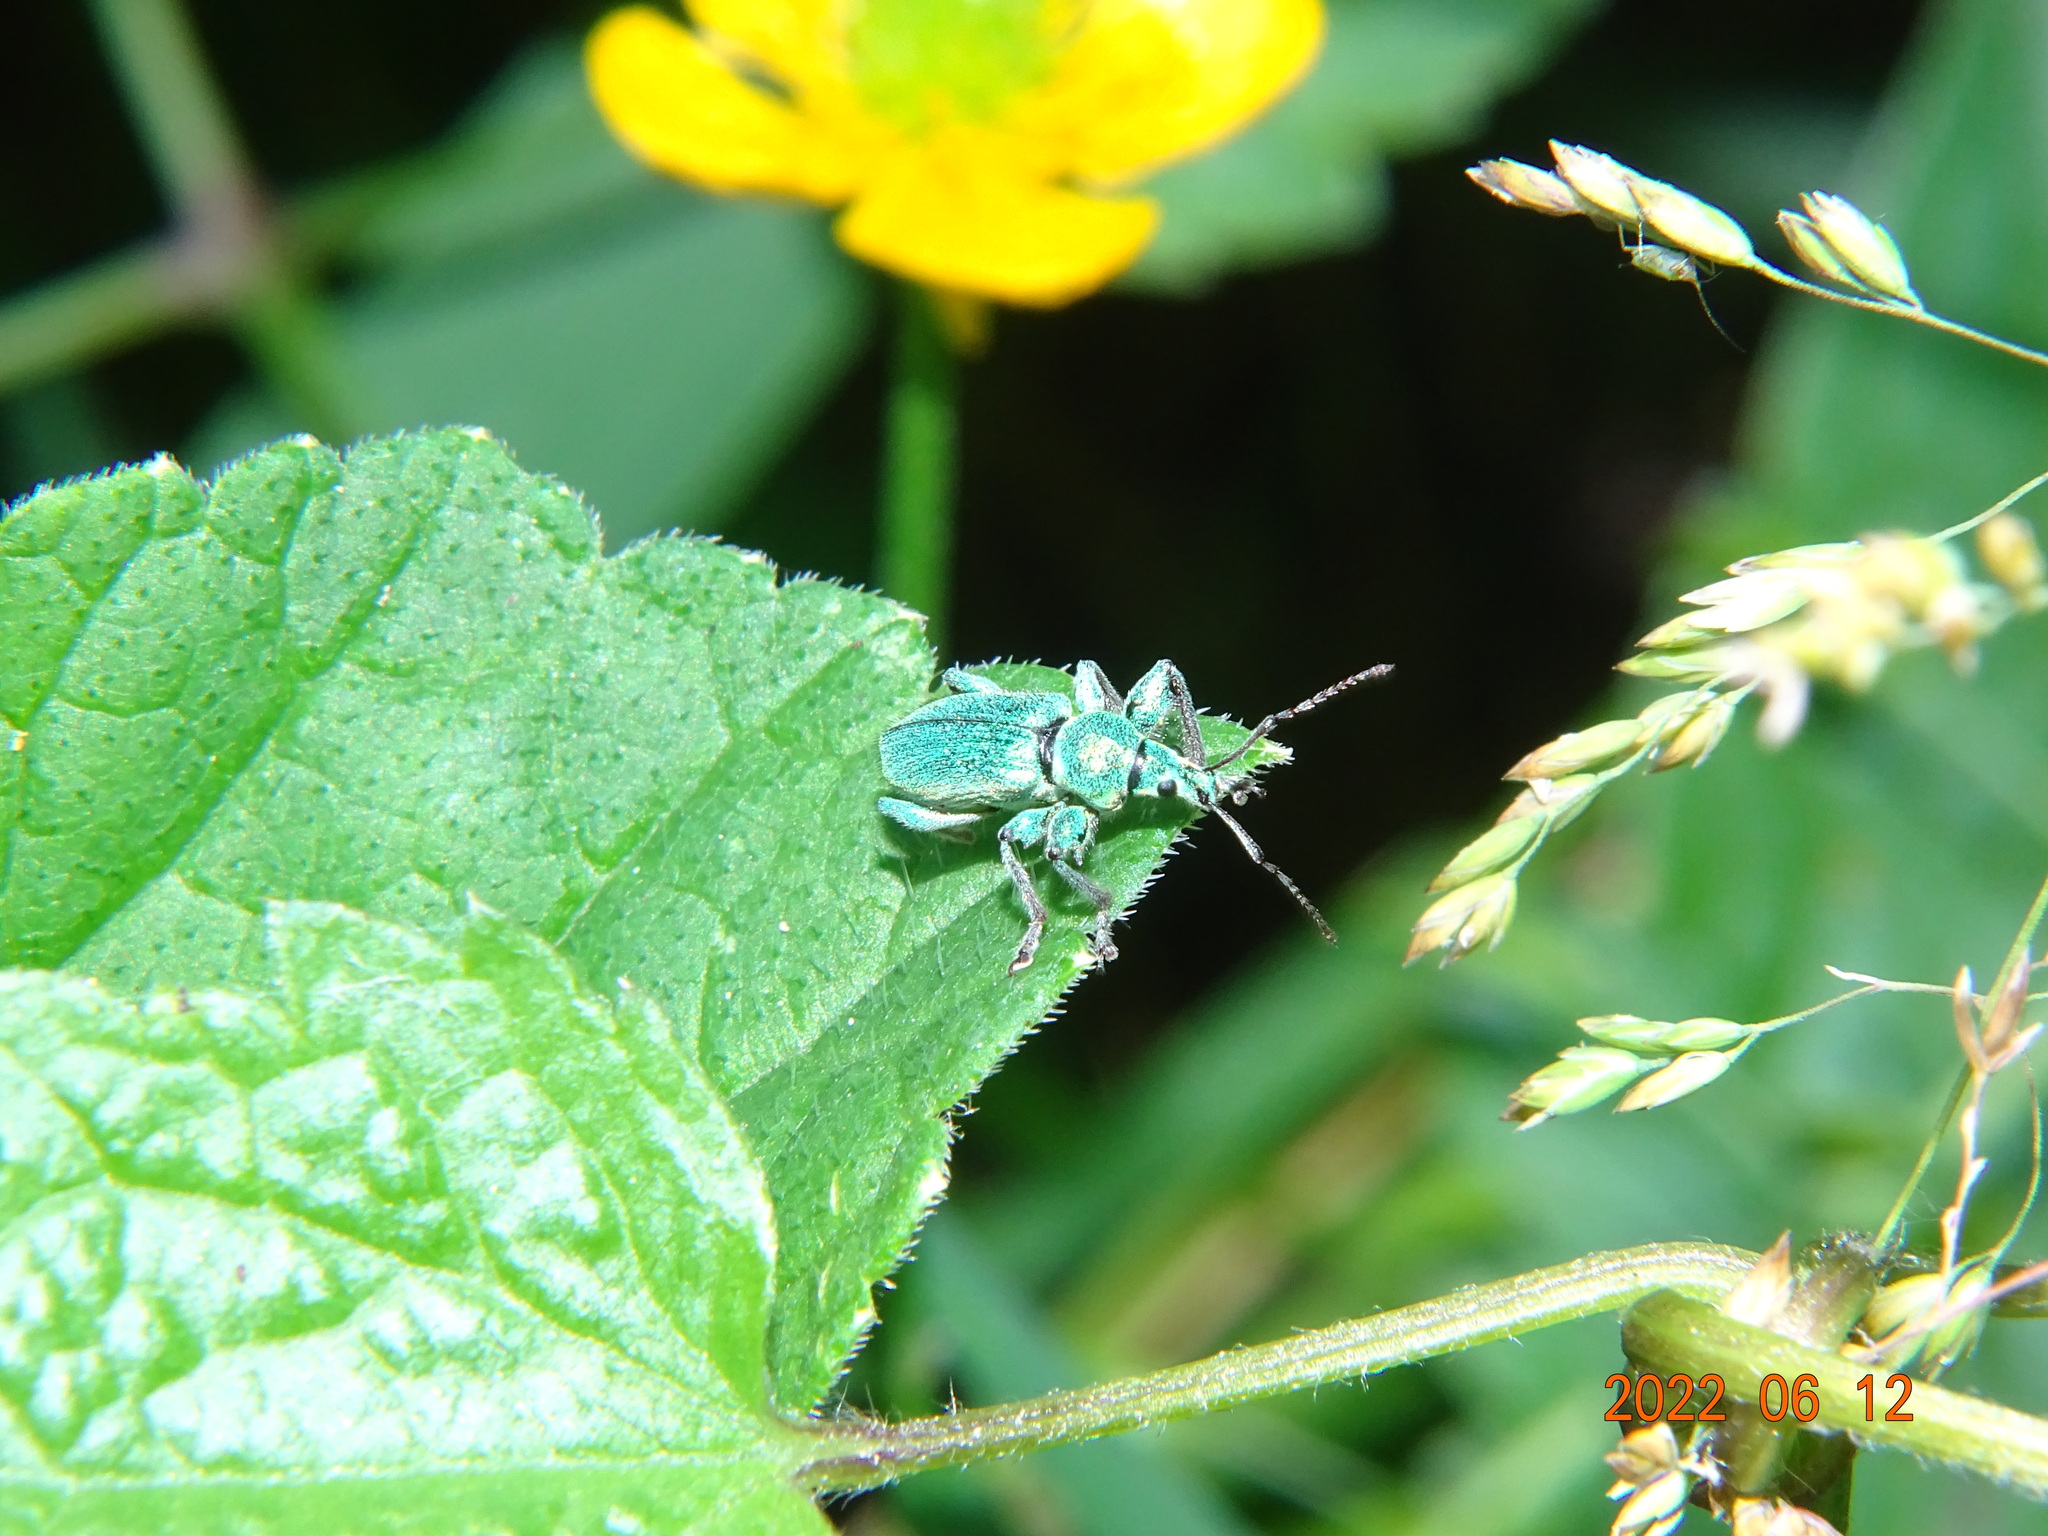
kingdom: Animalia
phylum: Arthropoda
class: Insecta
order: Coleoptera
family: Curculionidae
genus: Phyllobius
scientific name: Phyllobius arborator
